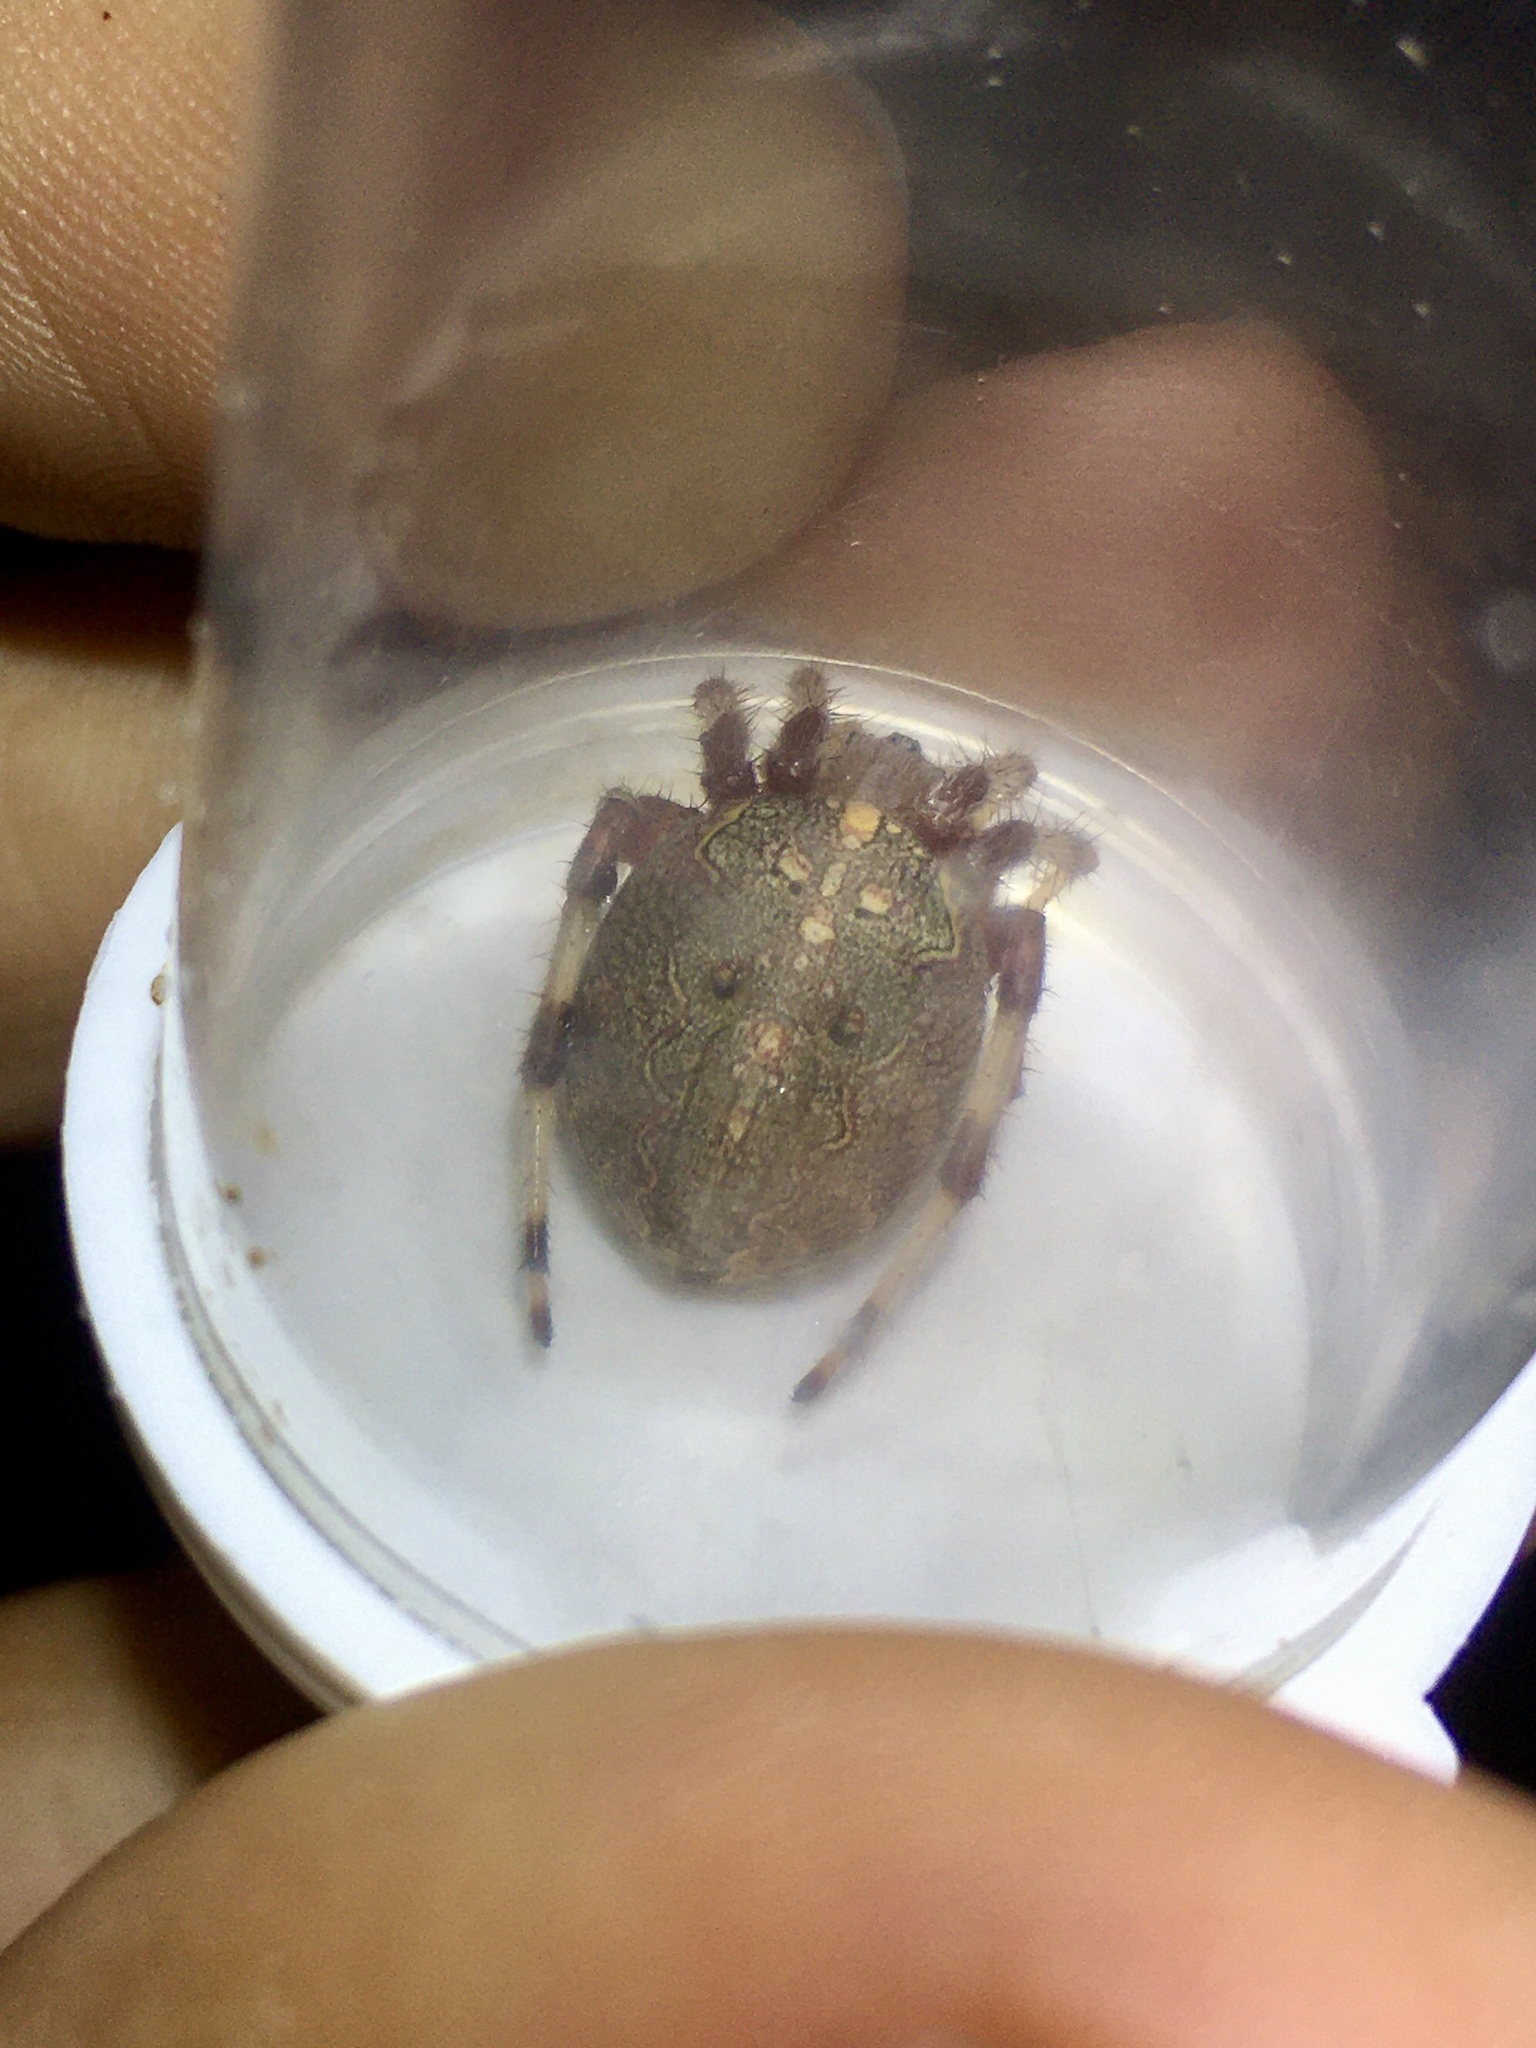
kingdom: Animalia
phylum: Arthropoda
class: Arachnida
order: Araneae
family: Araneidae
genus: Araneus
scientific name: Araneus marmoreus
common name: Marbled orbweaver
